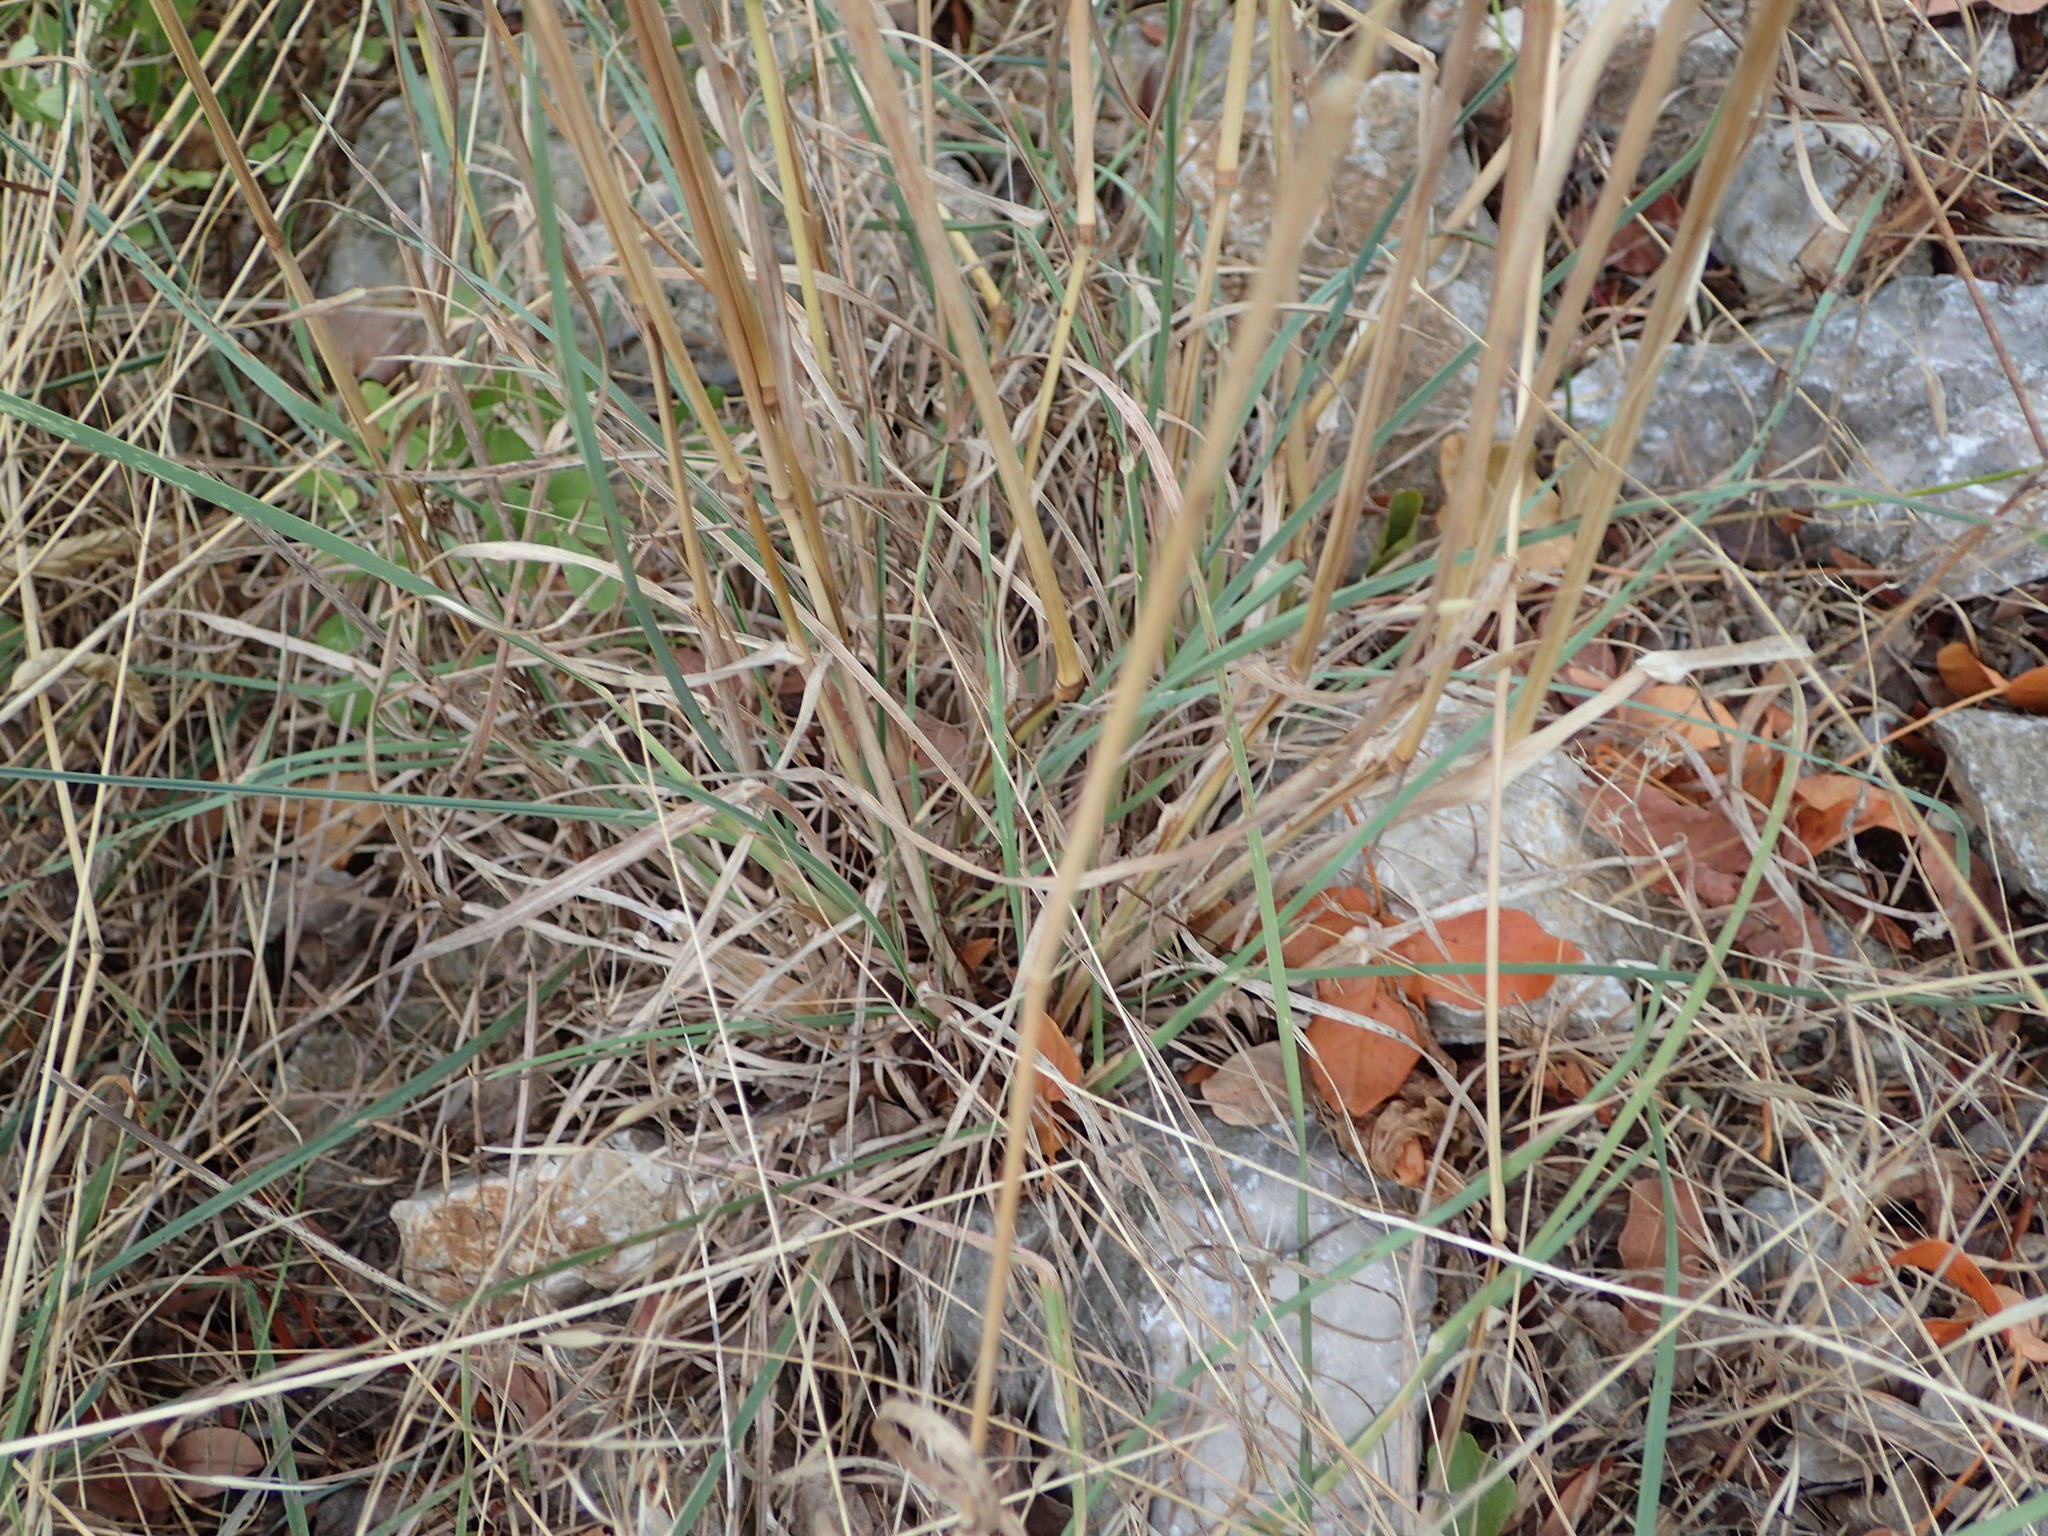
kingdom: Plantae
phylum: Tracheophyta
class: Liliopsida
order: Poales
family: Poaceae
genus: Dactylis
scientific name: Dactylis glomerata
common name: Orchardgrass
